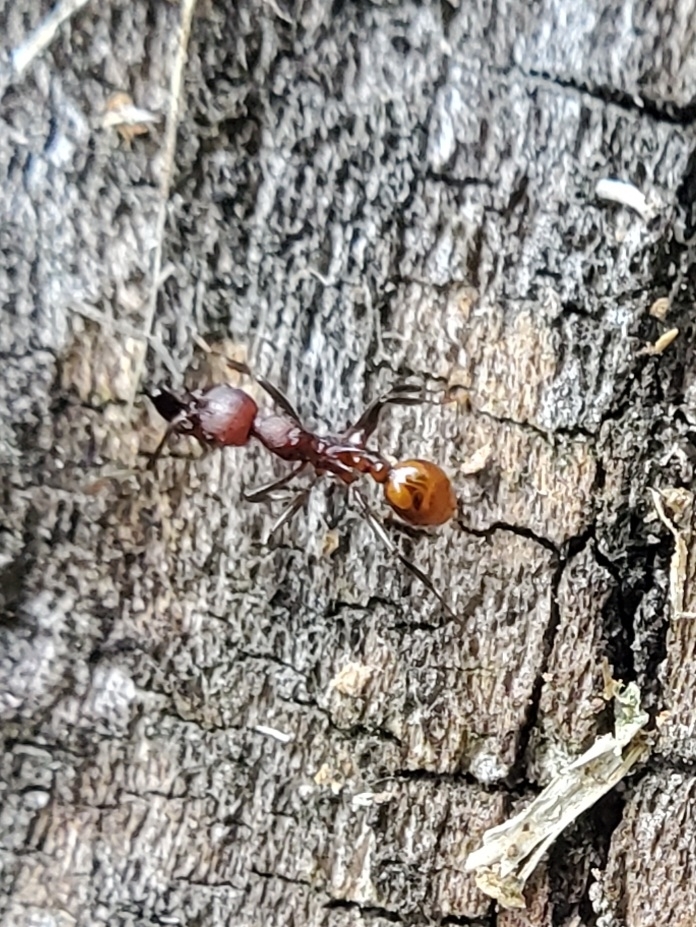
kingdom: Animalia
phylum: Arthropoda
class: Insecta
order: Hymenoptera
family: Formicidae
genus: Aphaenogaster
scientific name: Aphaenogaster tennesseensis
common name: Tennessee thread-waisted ant
